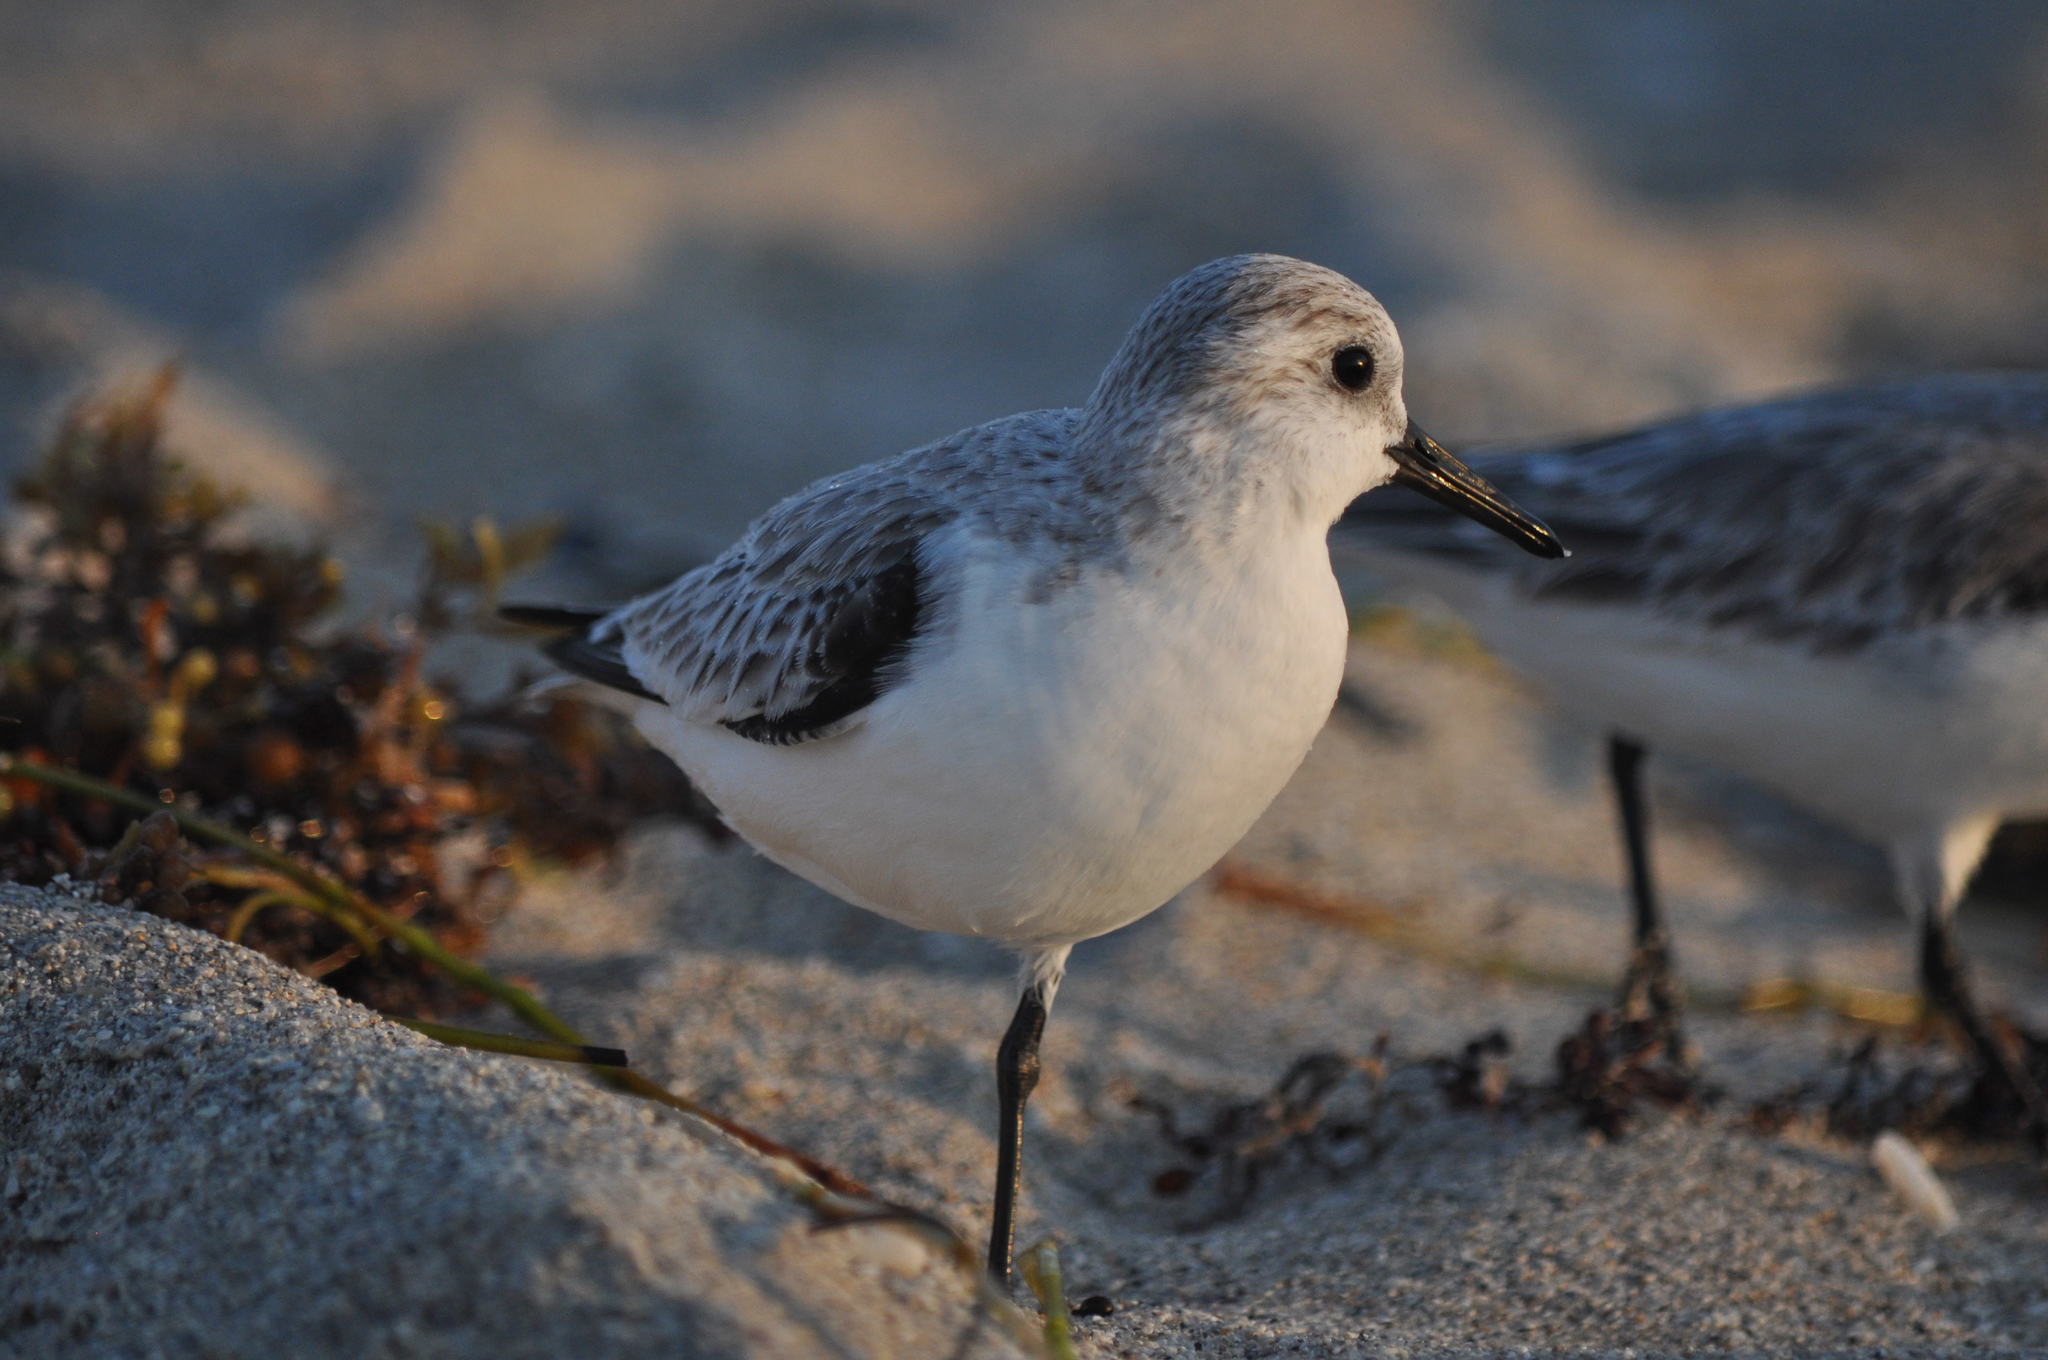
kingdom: Animalia
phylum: Chordata
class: Aves
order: Charadriiformes
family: Scolopacidae
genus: Calidris
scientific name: Calidris alba
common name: Sanderling
